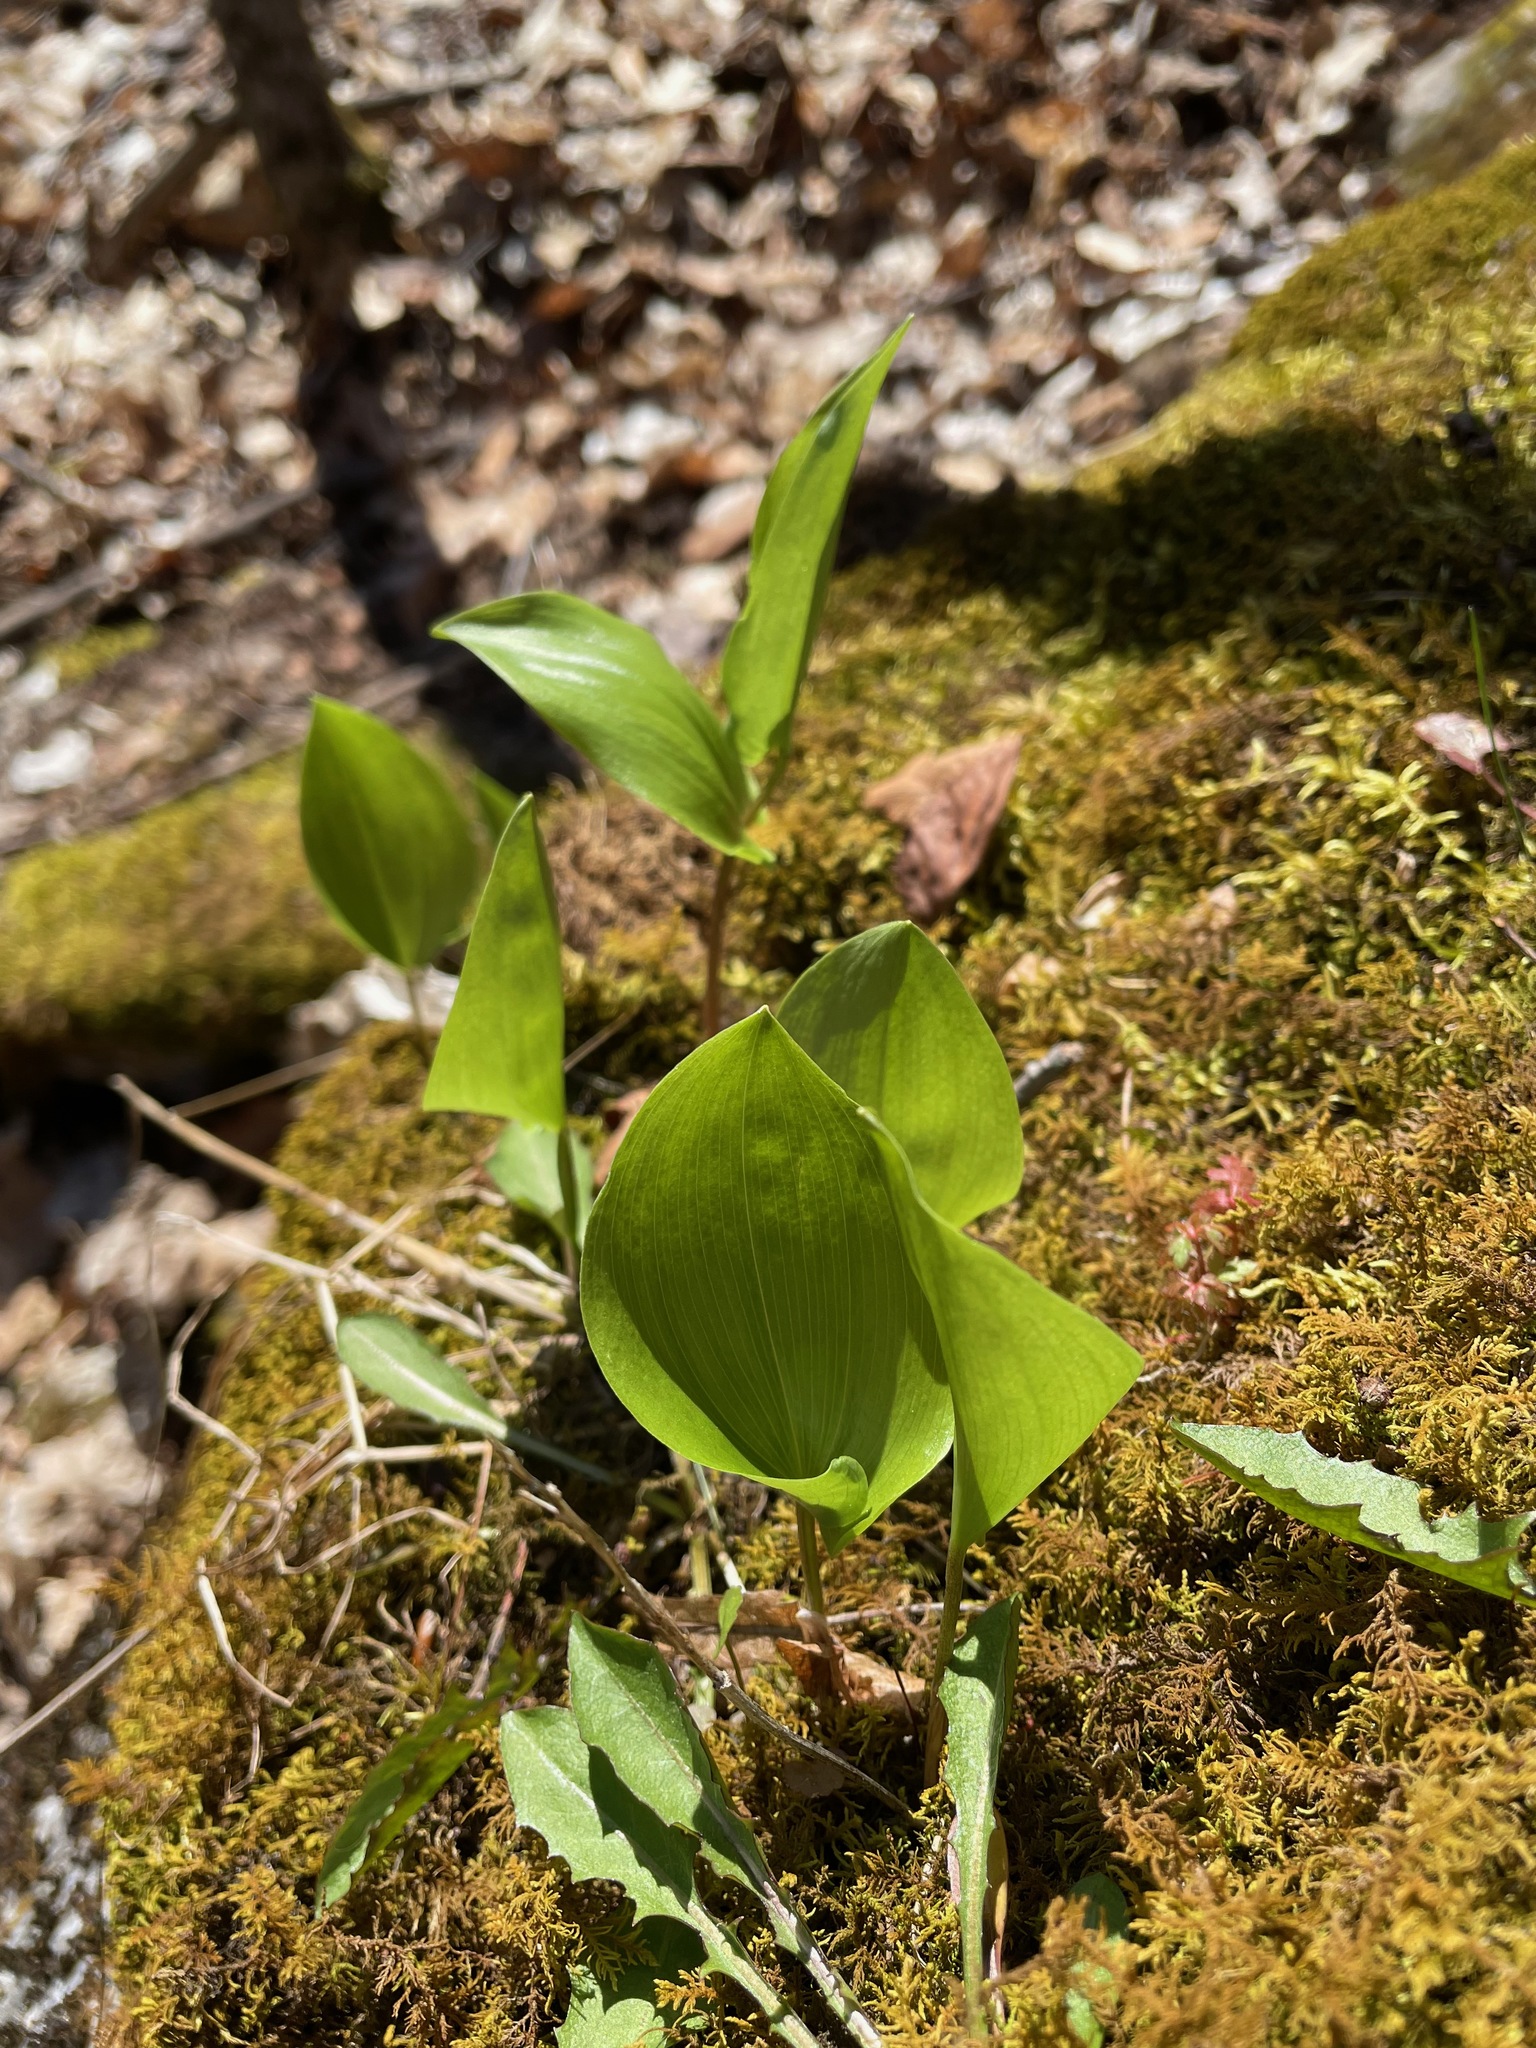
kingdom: Plantae
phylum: Tracheophyta
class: Liliopsida
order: Asparagales
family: Asparagaceae
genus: Maianthemum
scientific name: Maianthemum canadense
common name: False lily-of-the-valley
